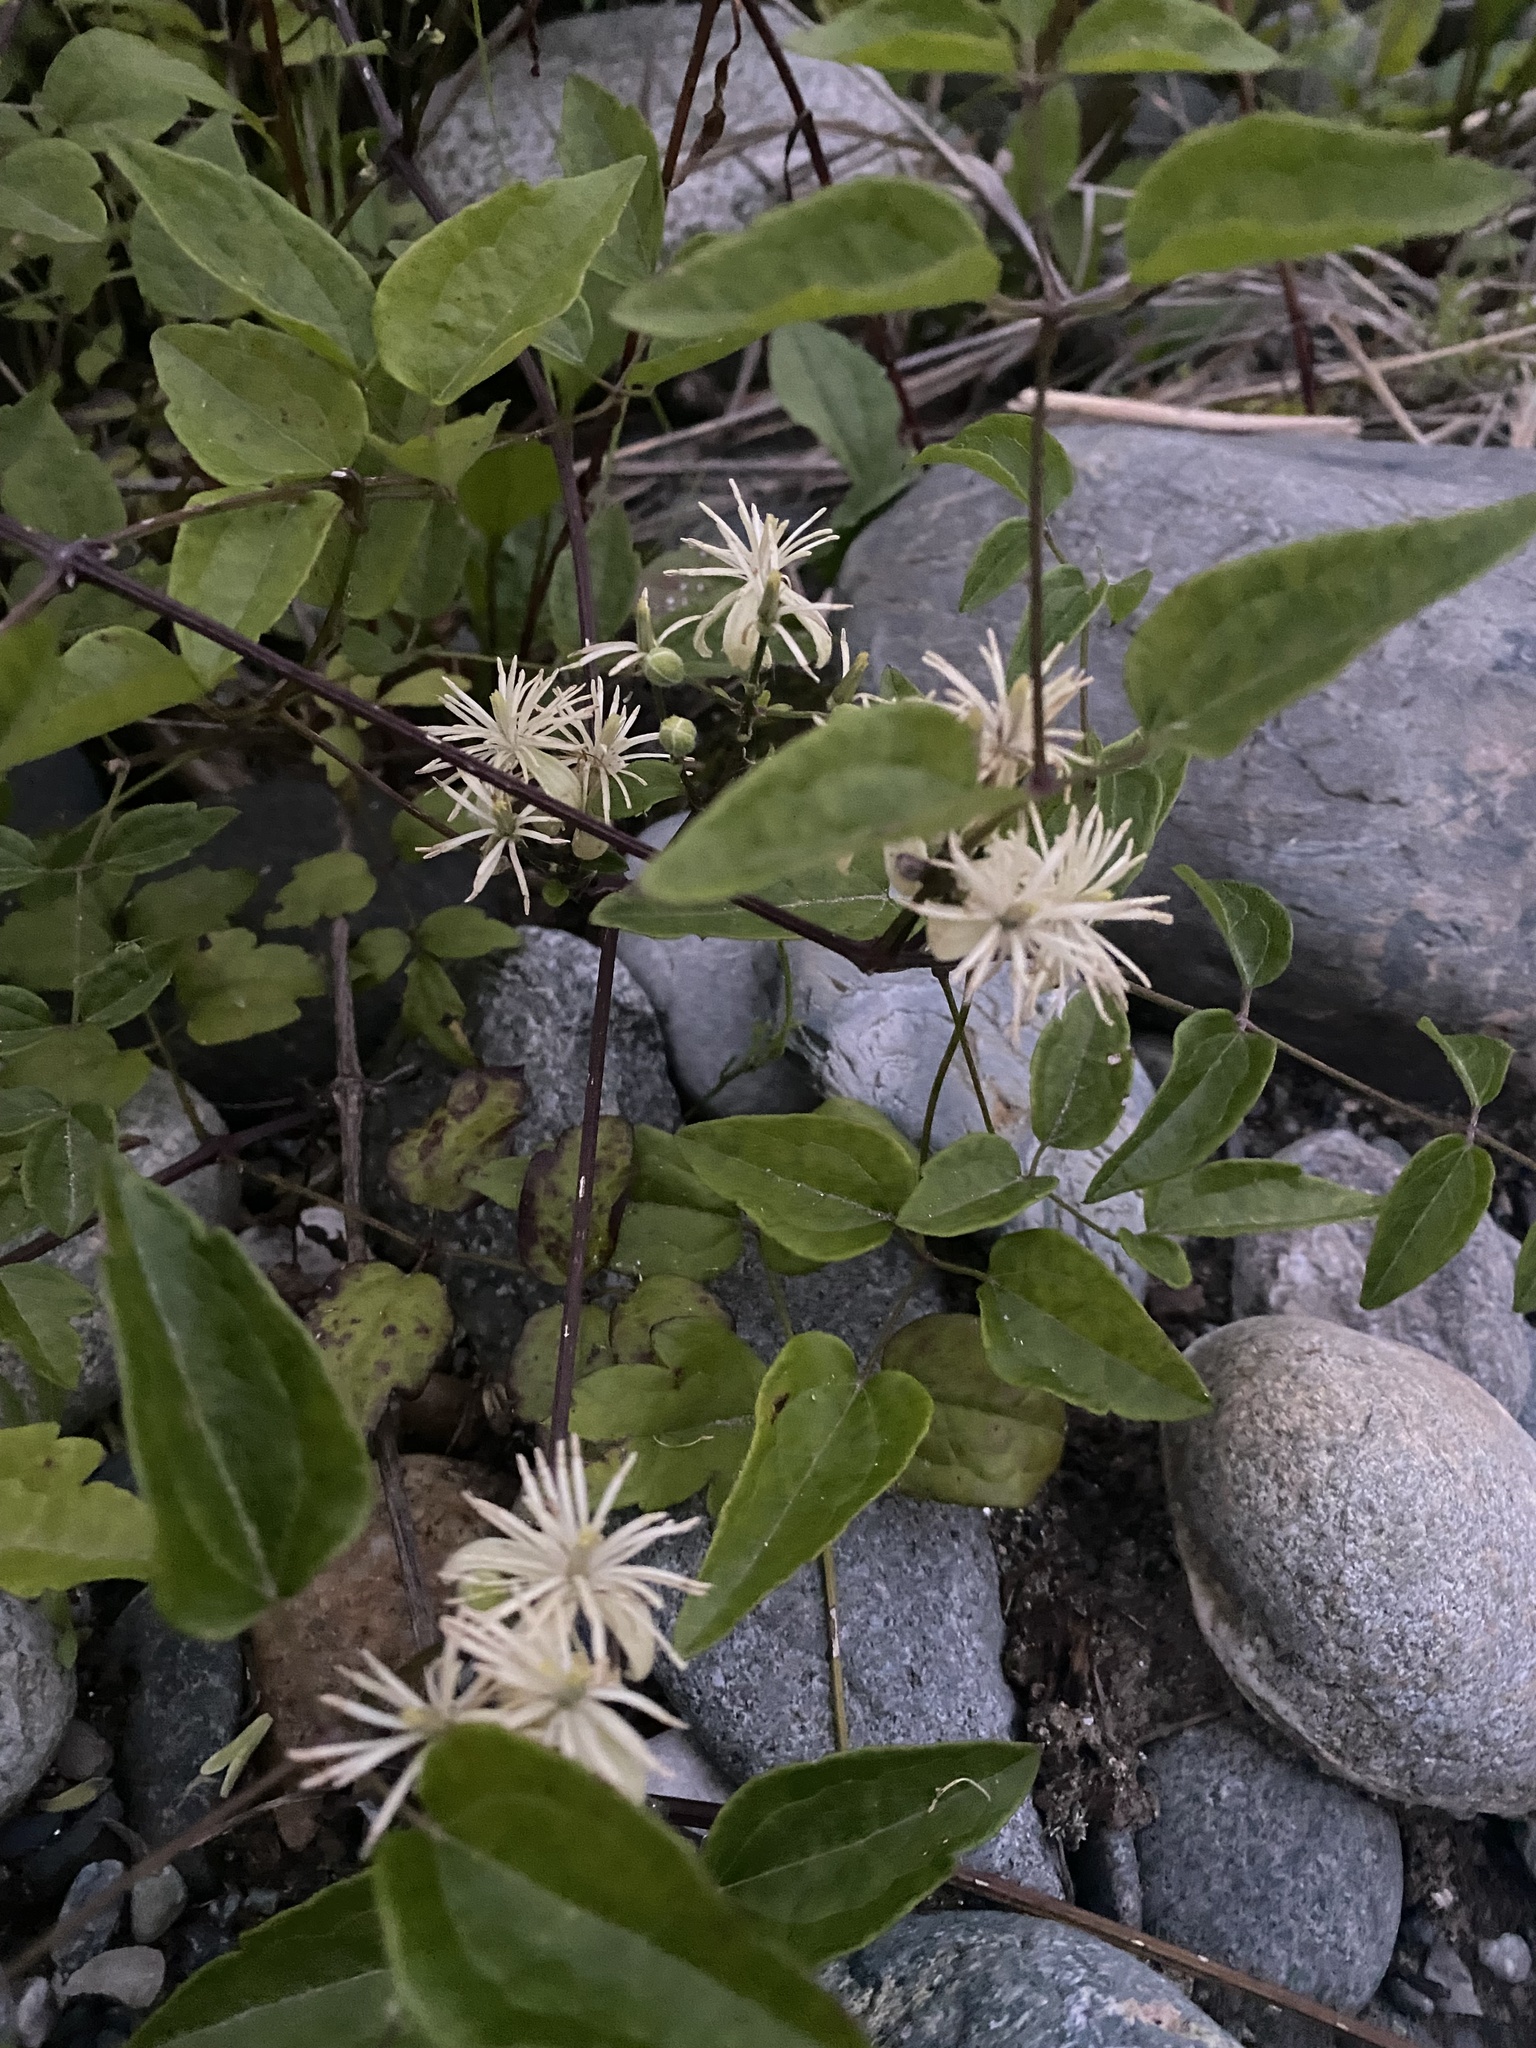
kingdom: Plantae
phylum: Tracheophyta
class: Magnoliopsida
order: Ranunculales
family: Ranunculaceae
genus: Clematis
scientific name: Clematis vitalba
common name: Evergreen clematis
